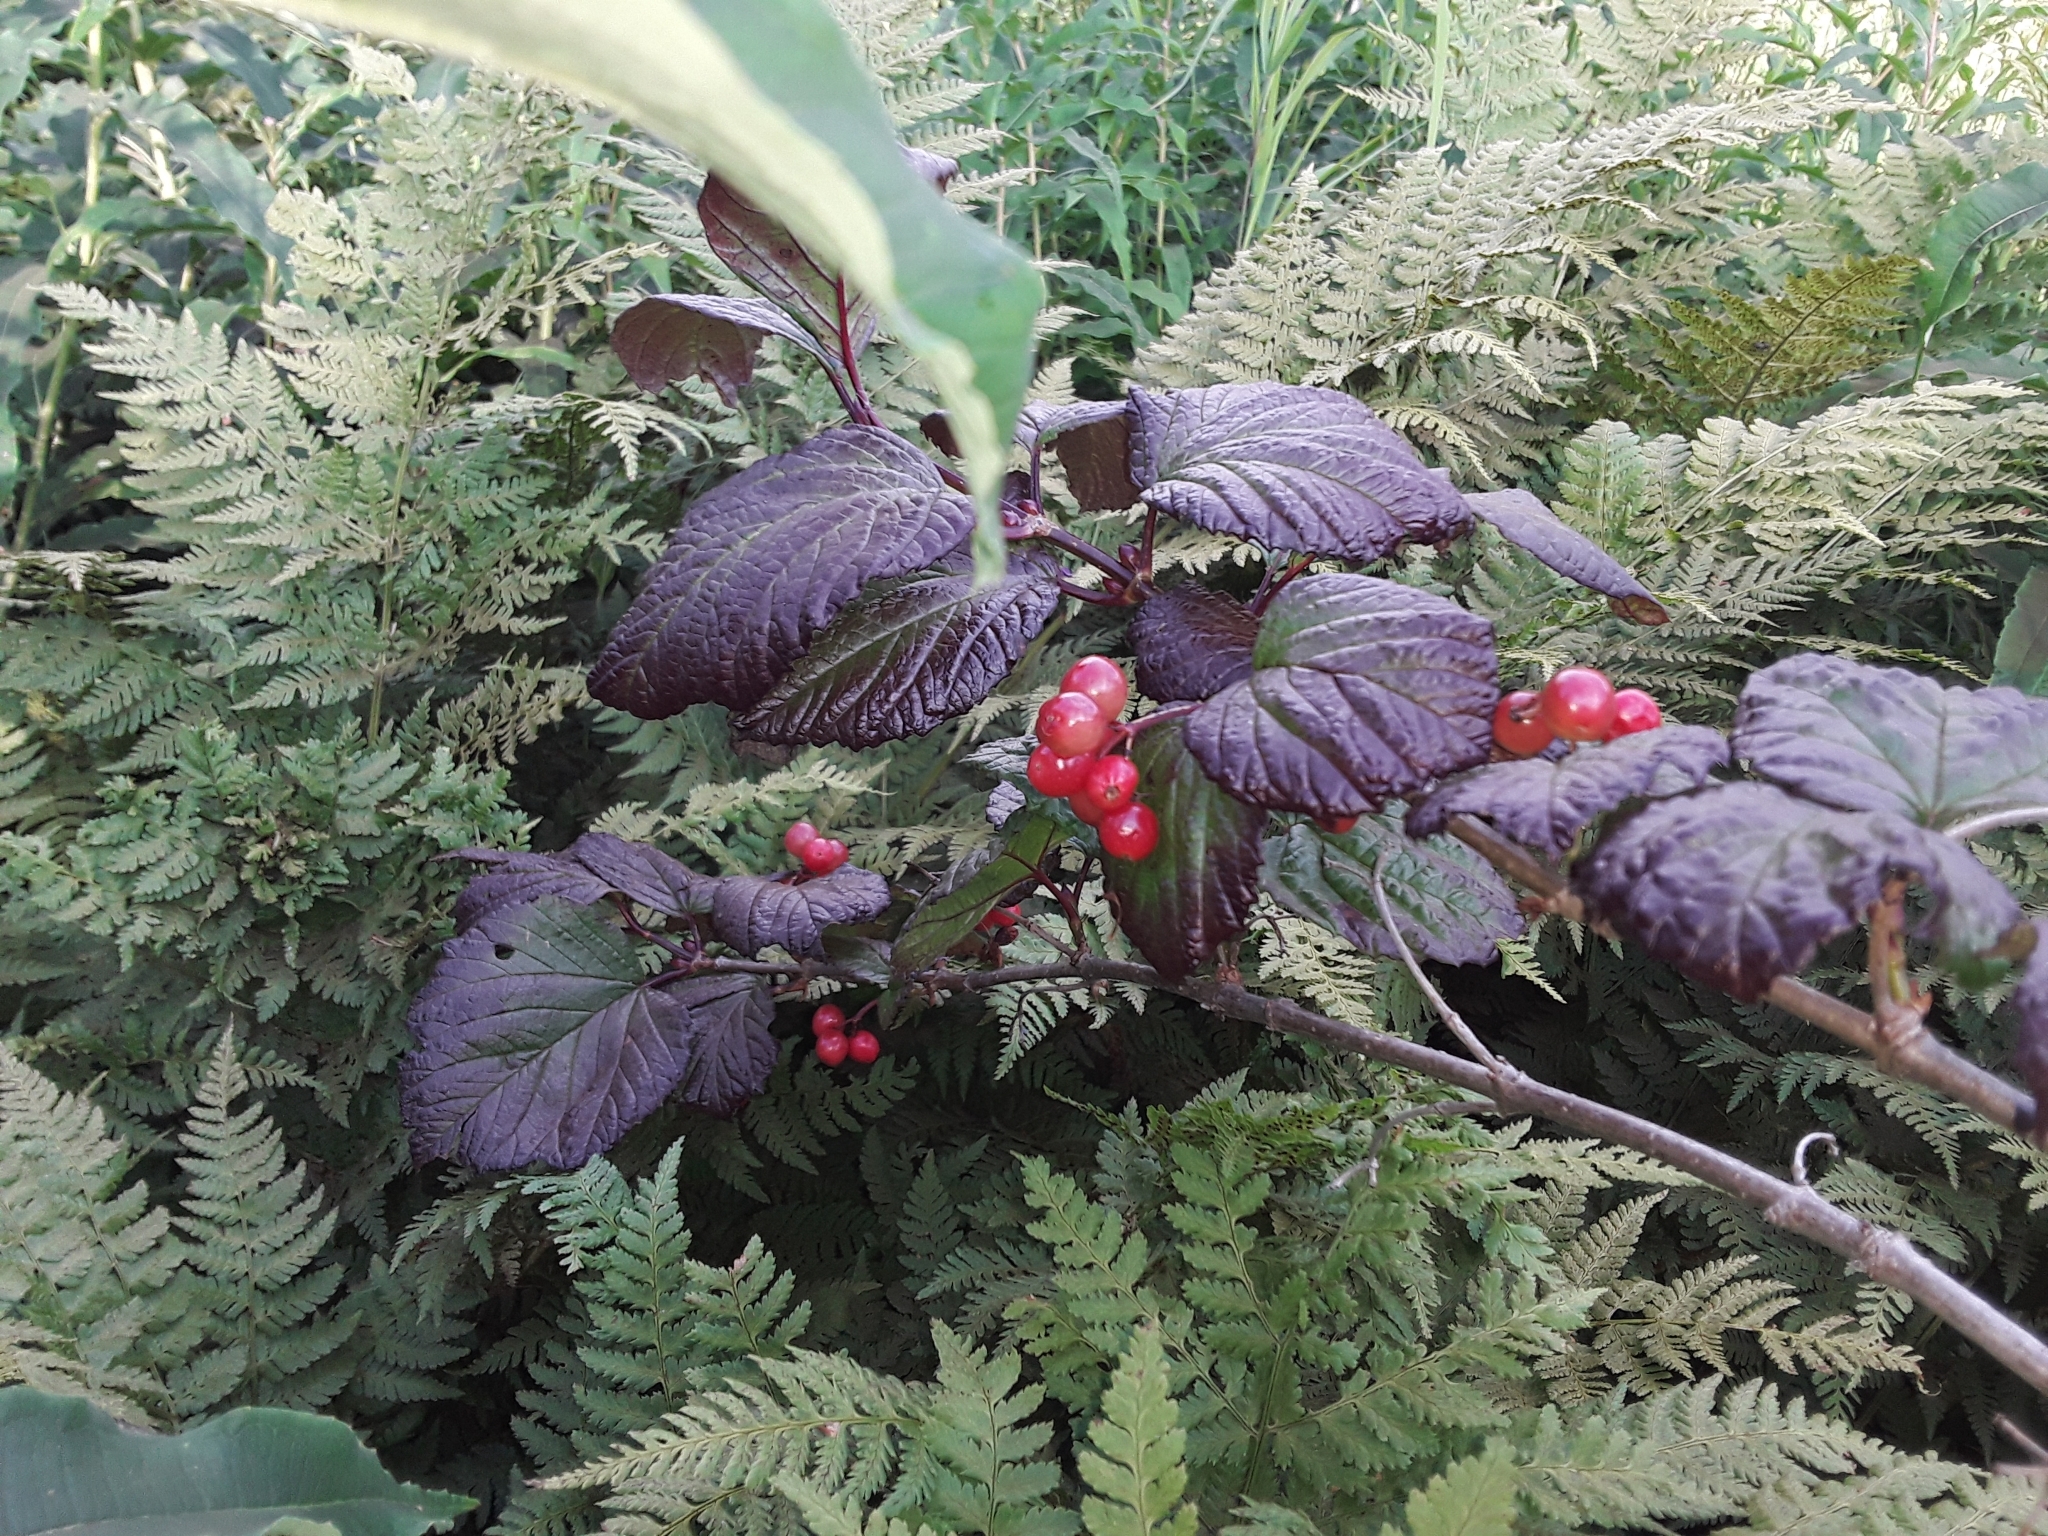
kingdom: Plantae
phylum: Tracheophyta
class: Magnoliopsida
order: Dipsacales
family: Viburnaceae
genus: Viburnum
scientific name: Viburnum edule
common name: Mooseberry
